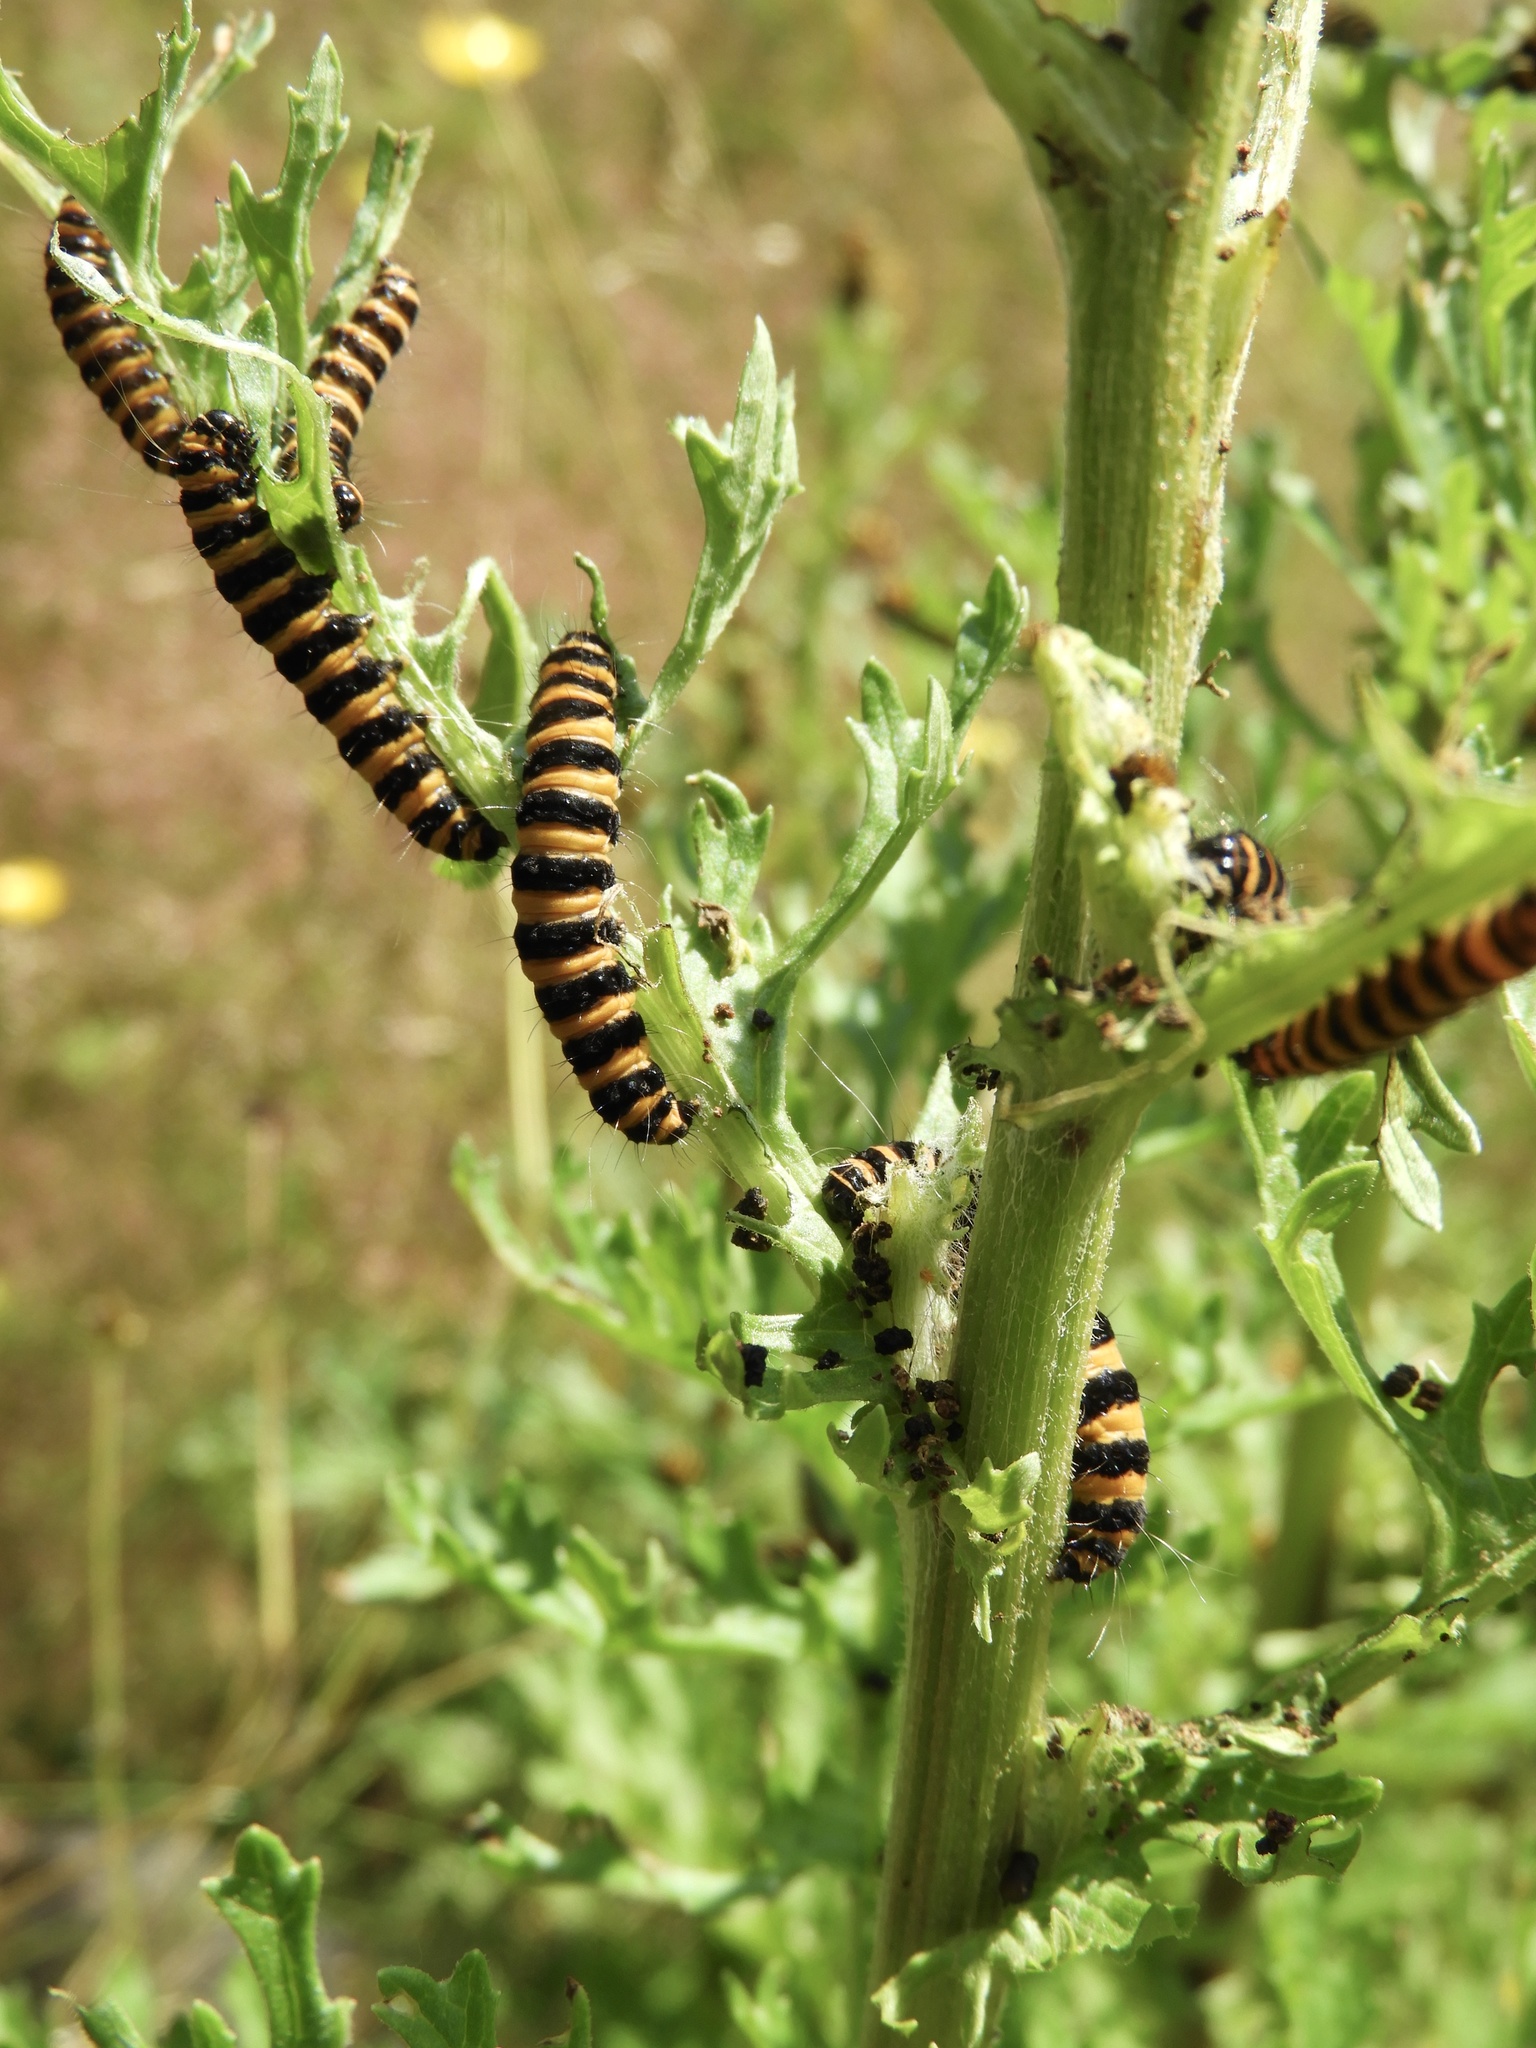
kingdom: Animalia
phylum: Arthropoda
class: Insecta
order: Lepidoptera
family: Erebidae
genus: Tyria
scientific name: Tyria jacobaeae
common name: Cinnabar
